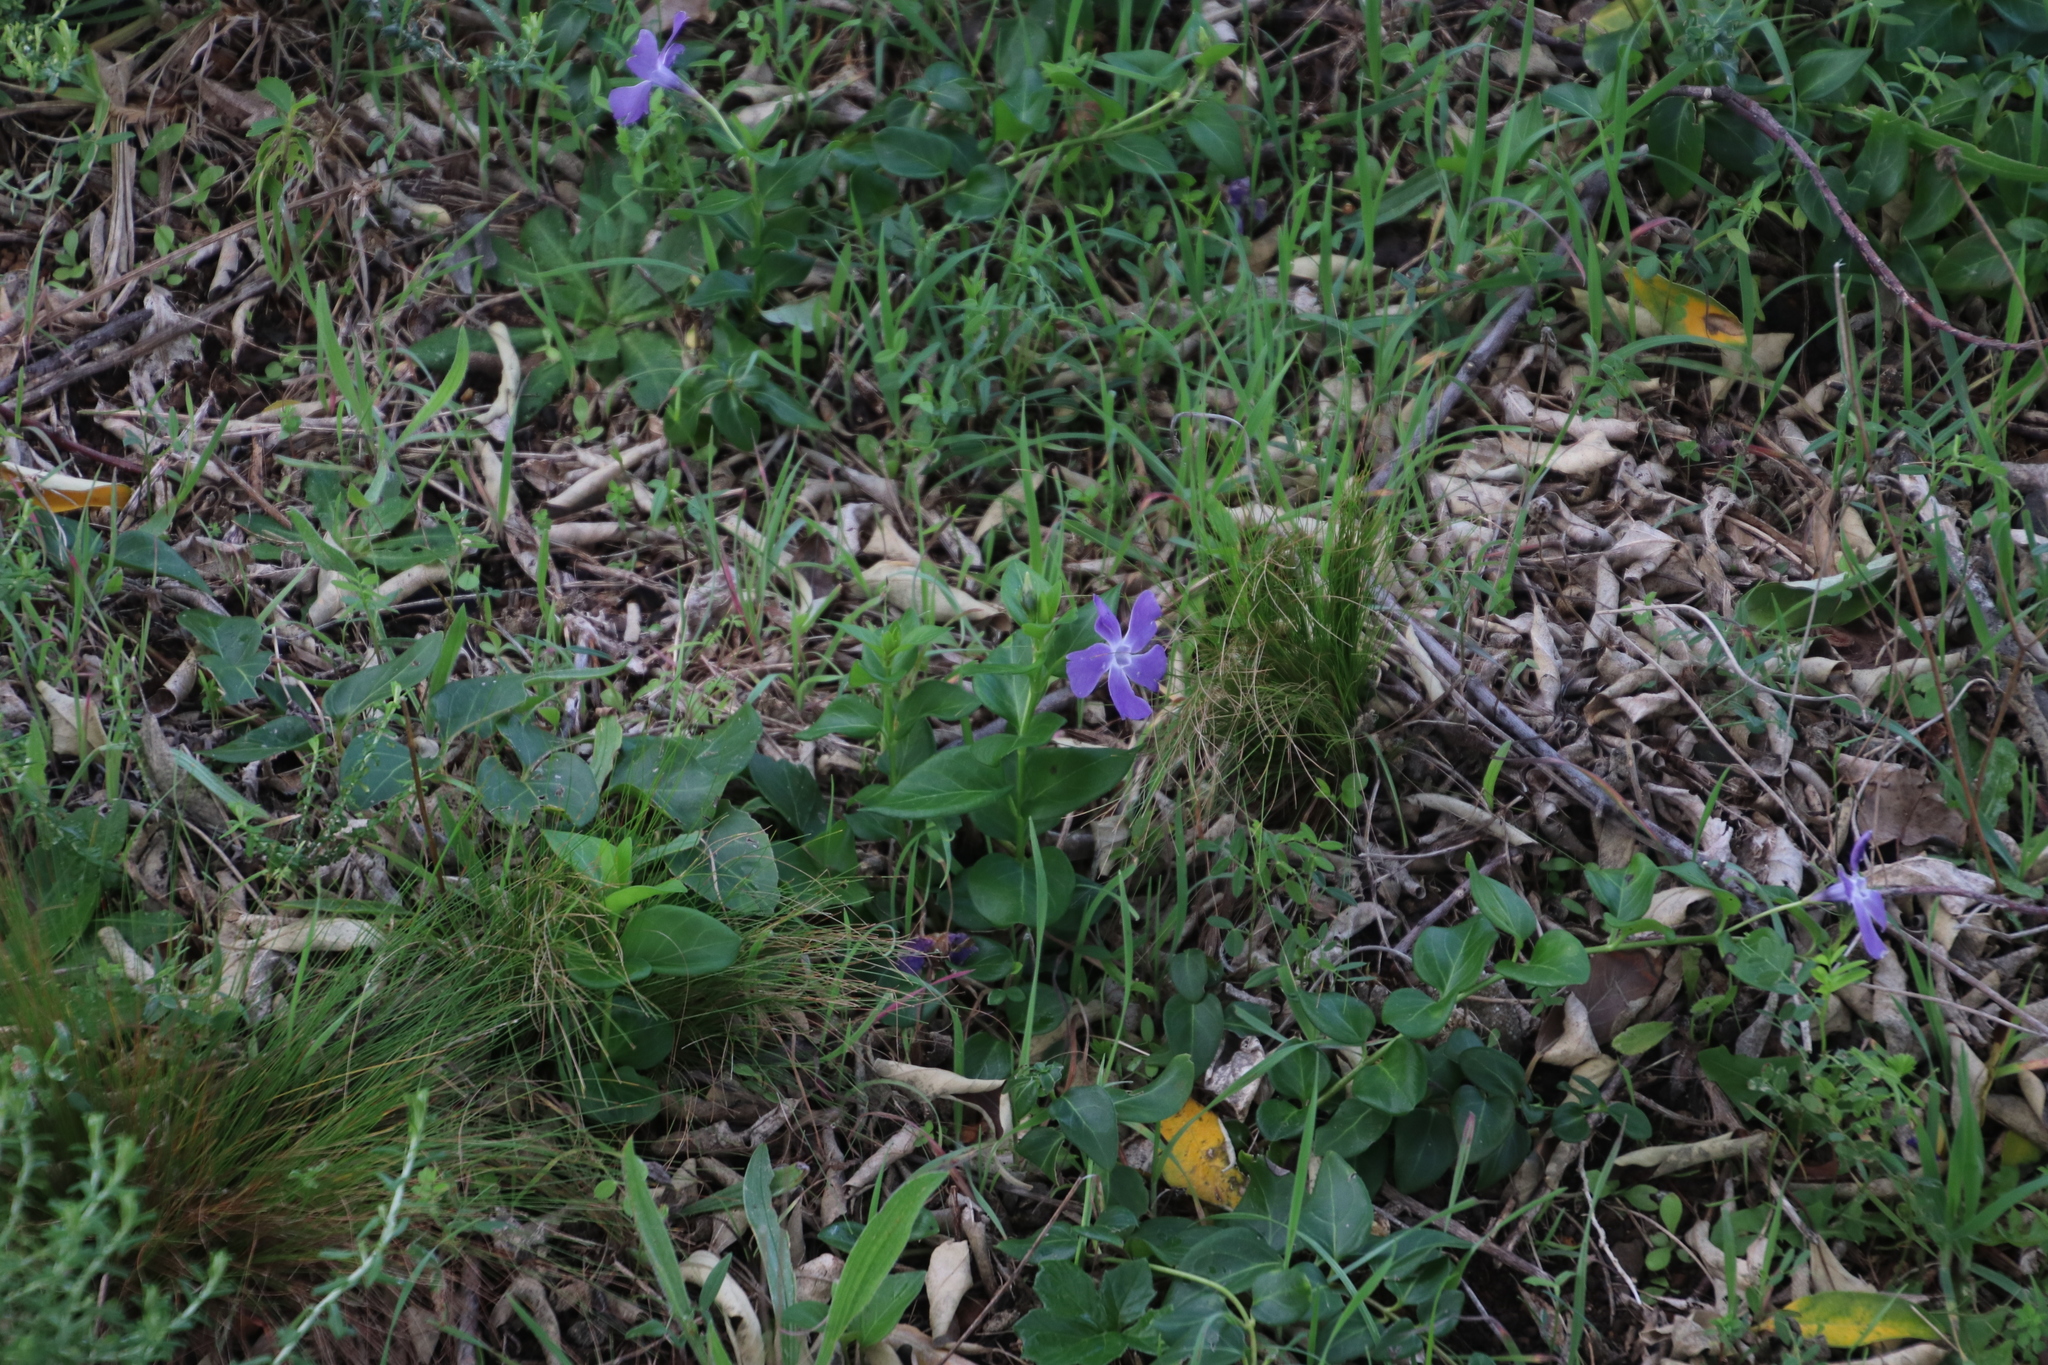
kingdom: Plantae
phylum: Tracheophyta
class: Magnoliopsida
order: Gentianales
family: Apocynaceae
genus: Vinca
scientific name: Vinca major
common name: Greater periwinkle
